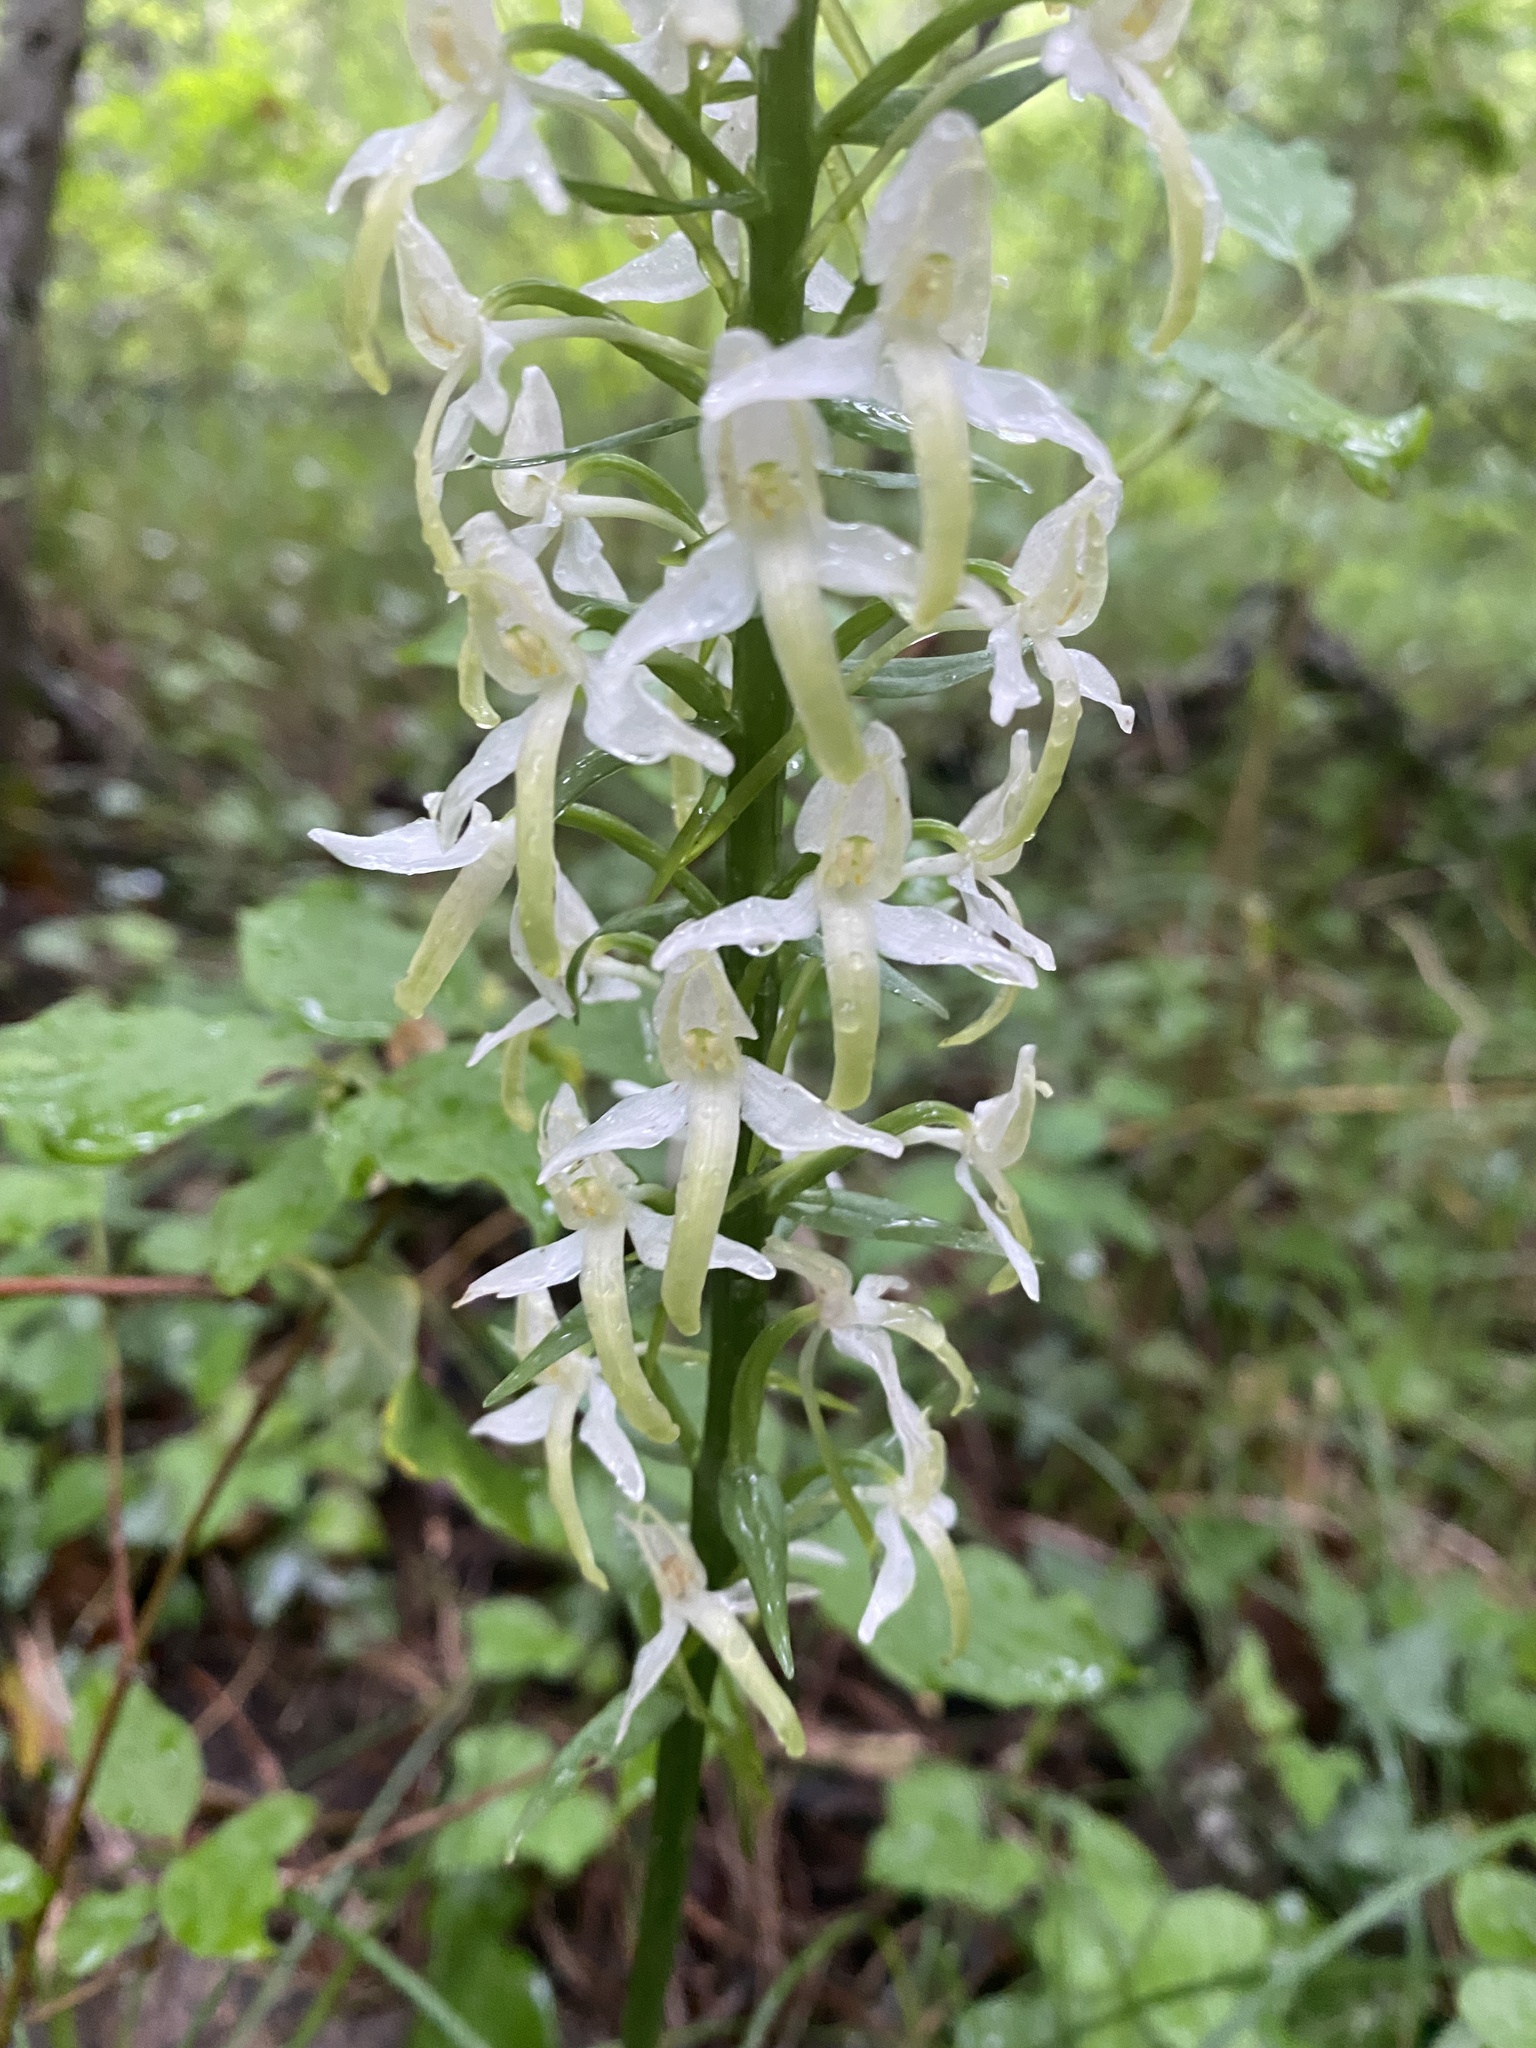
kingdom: Plantae
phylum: Tracheophyta
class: Liliopsida
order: Asparagales
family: Orchidaceae
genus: Platanthera
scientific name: Platanthera bifolia
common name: Lesser butterfly-orchid
